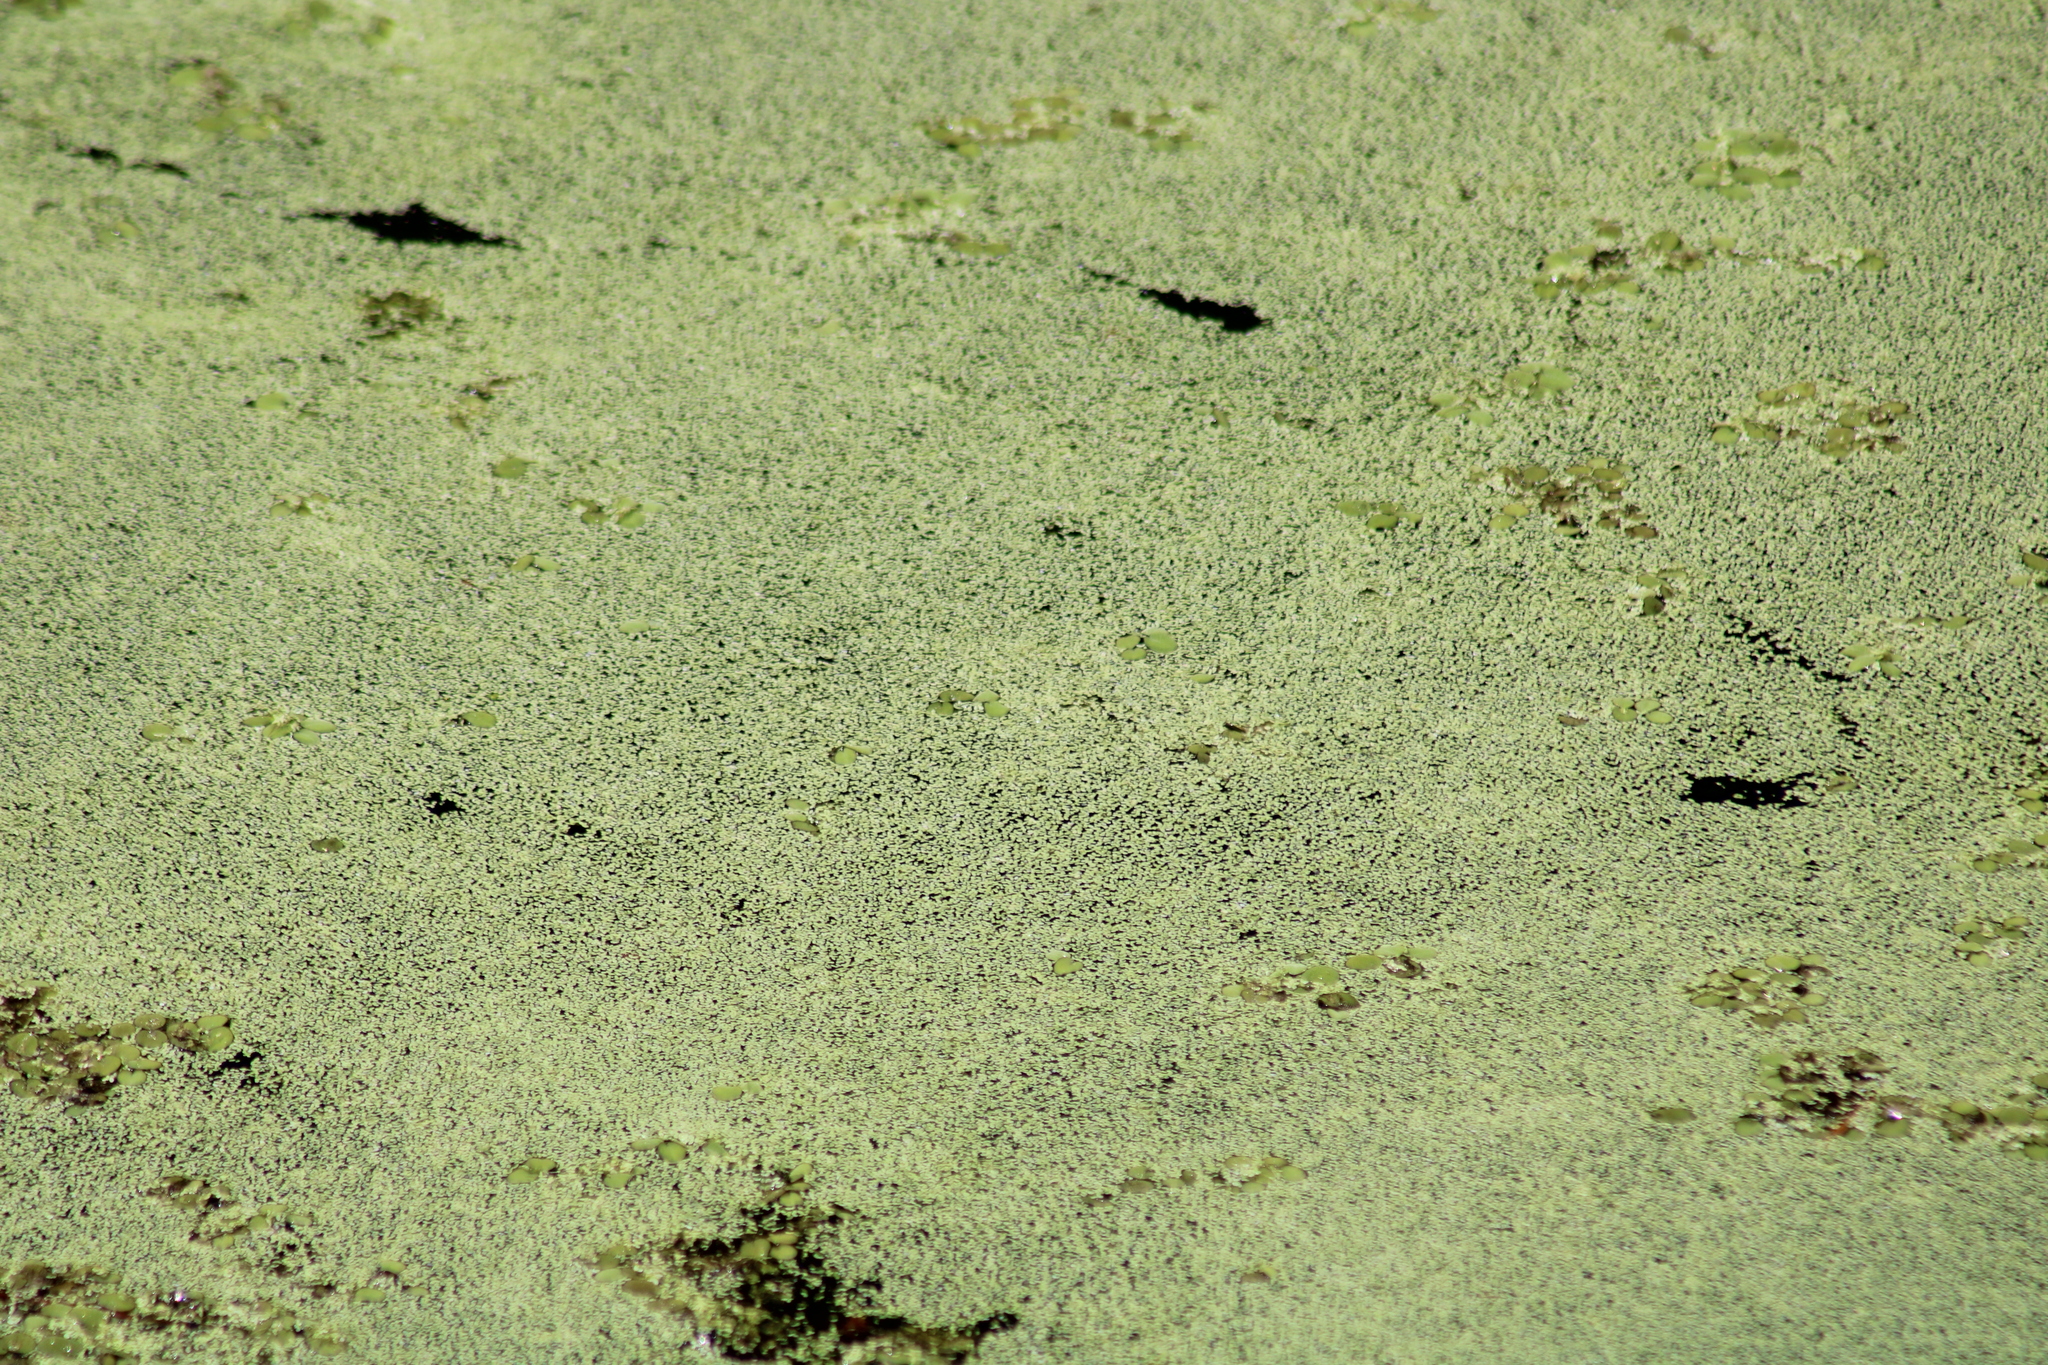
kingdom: Plantae
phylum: Tracheophyta
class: Polypodiopsida
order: Salviniales
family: Salviniaceae
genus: Salvinia
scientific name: Salvinia minima
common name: Water spangles
